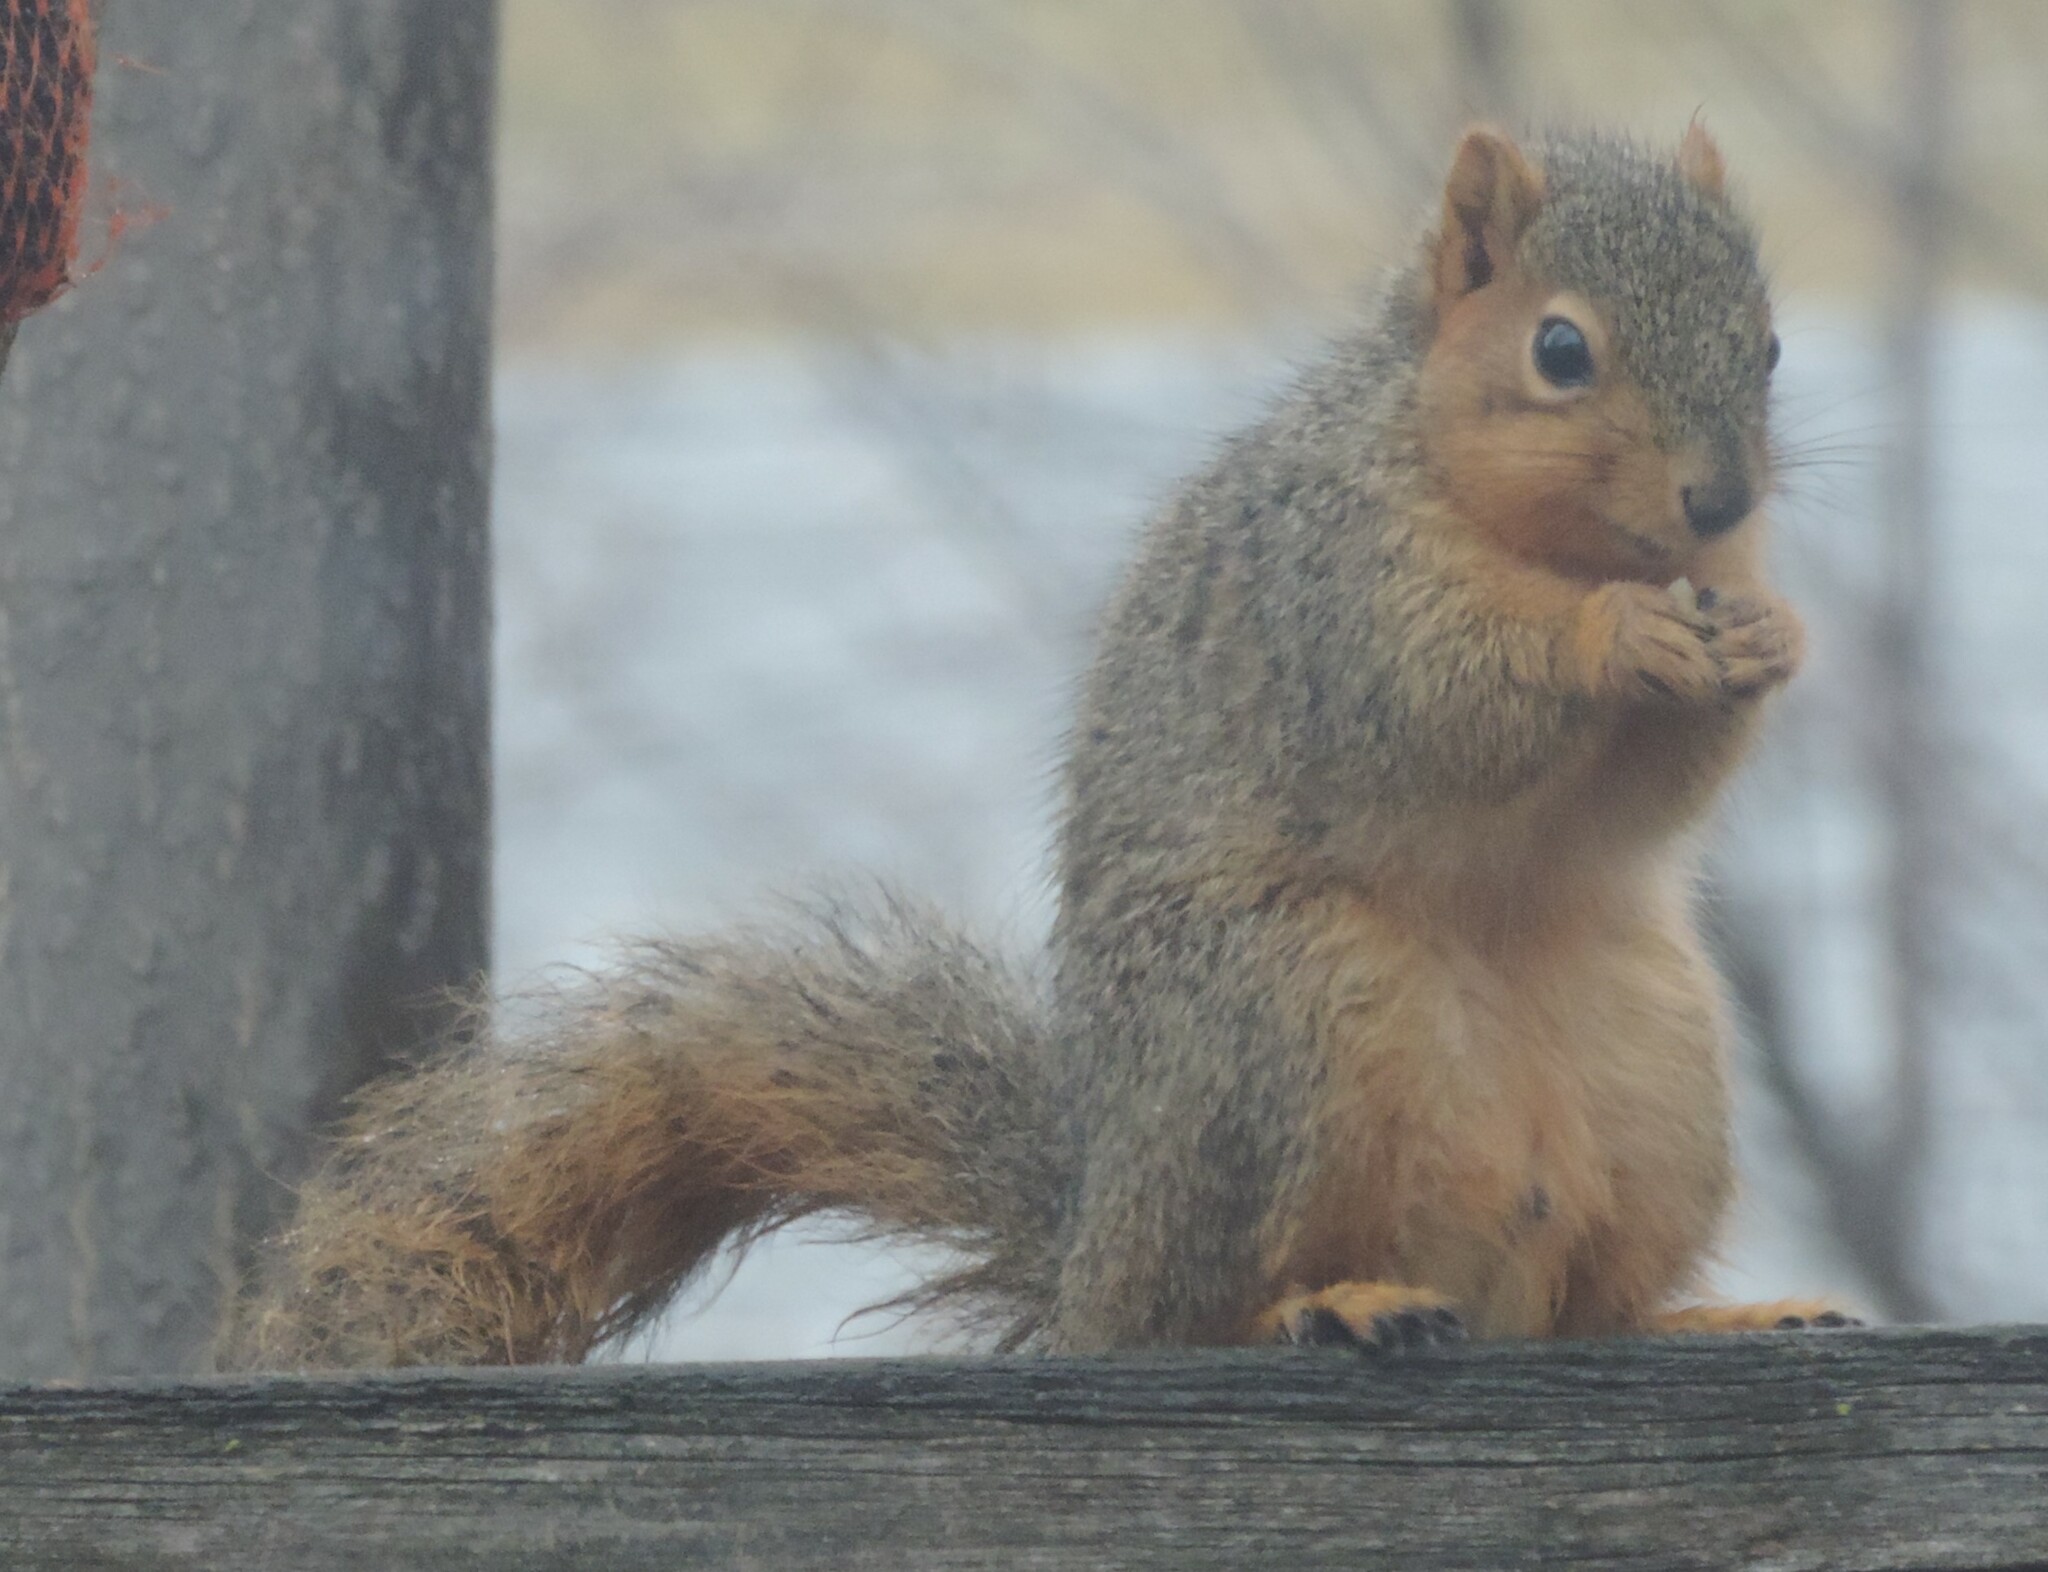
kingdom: Animalia
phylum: Chordata
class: Mammalia
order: Rodentia
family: Sciuridae
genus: Sciurus
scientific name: Sciurus niger
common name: Fox squirrel
